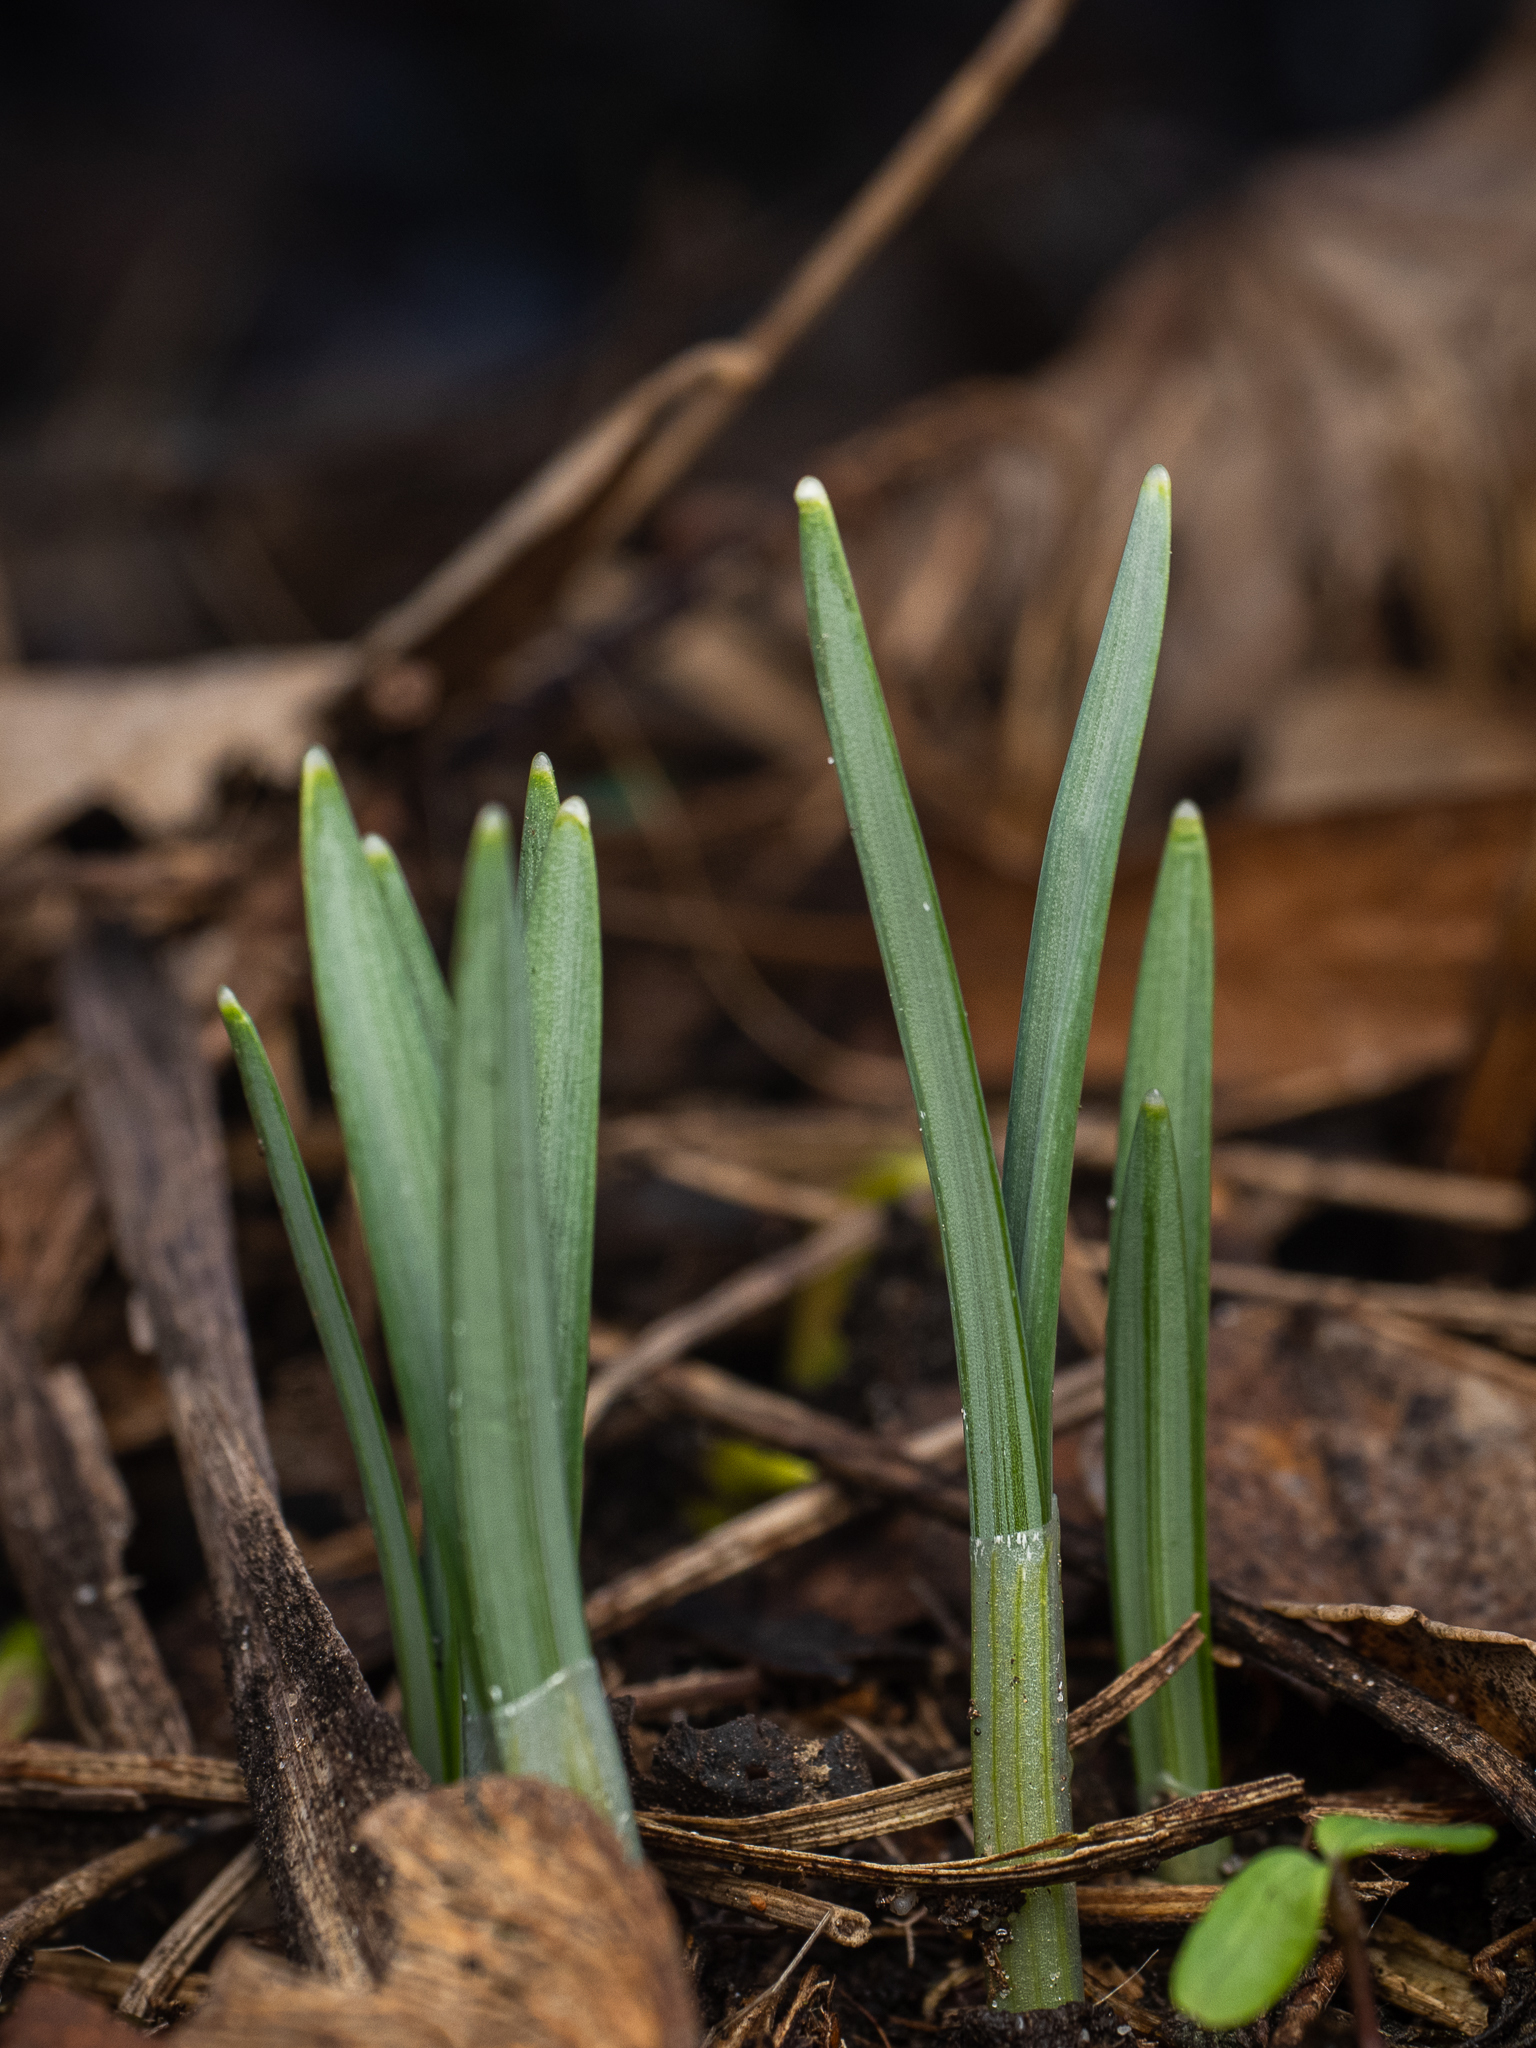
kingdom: Plantae
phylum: Tracheophyta
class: Liliopsida
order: Asparagales
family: Amaryllidaceae
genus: Galanthus
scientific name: Galanthus nivalis
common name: Snowdrop
